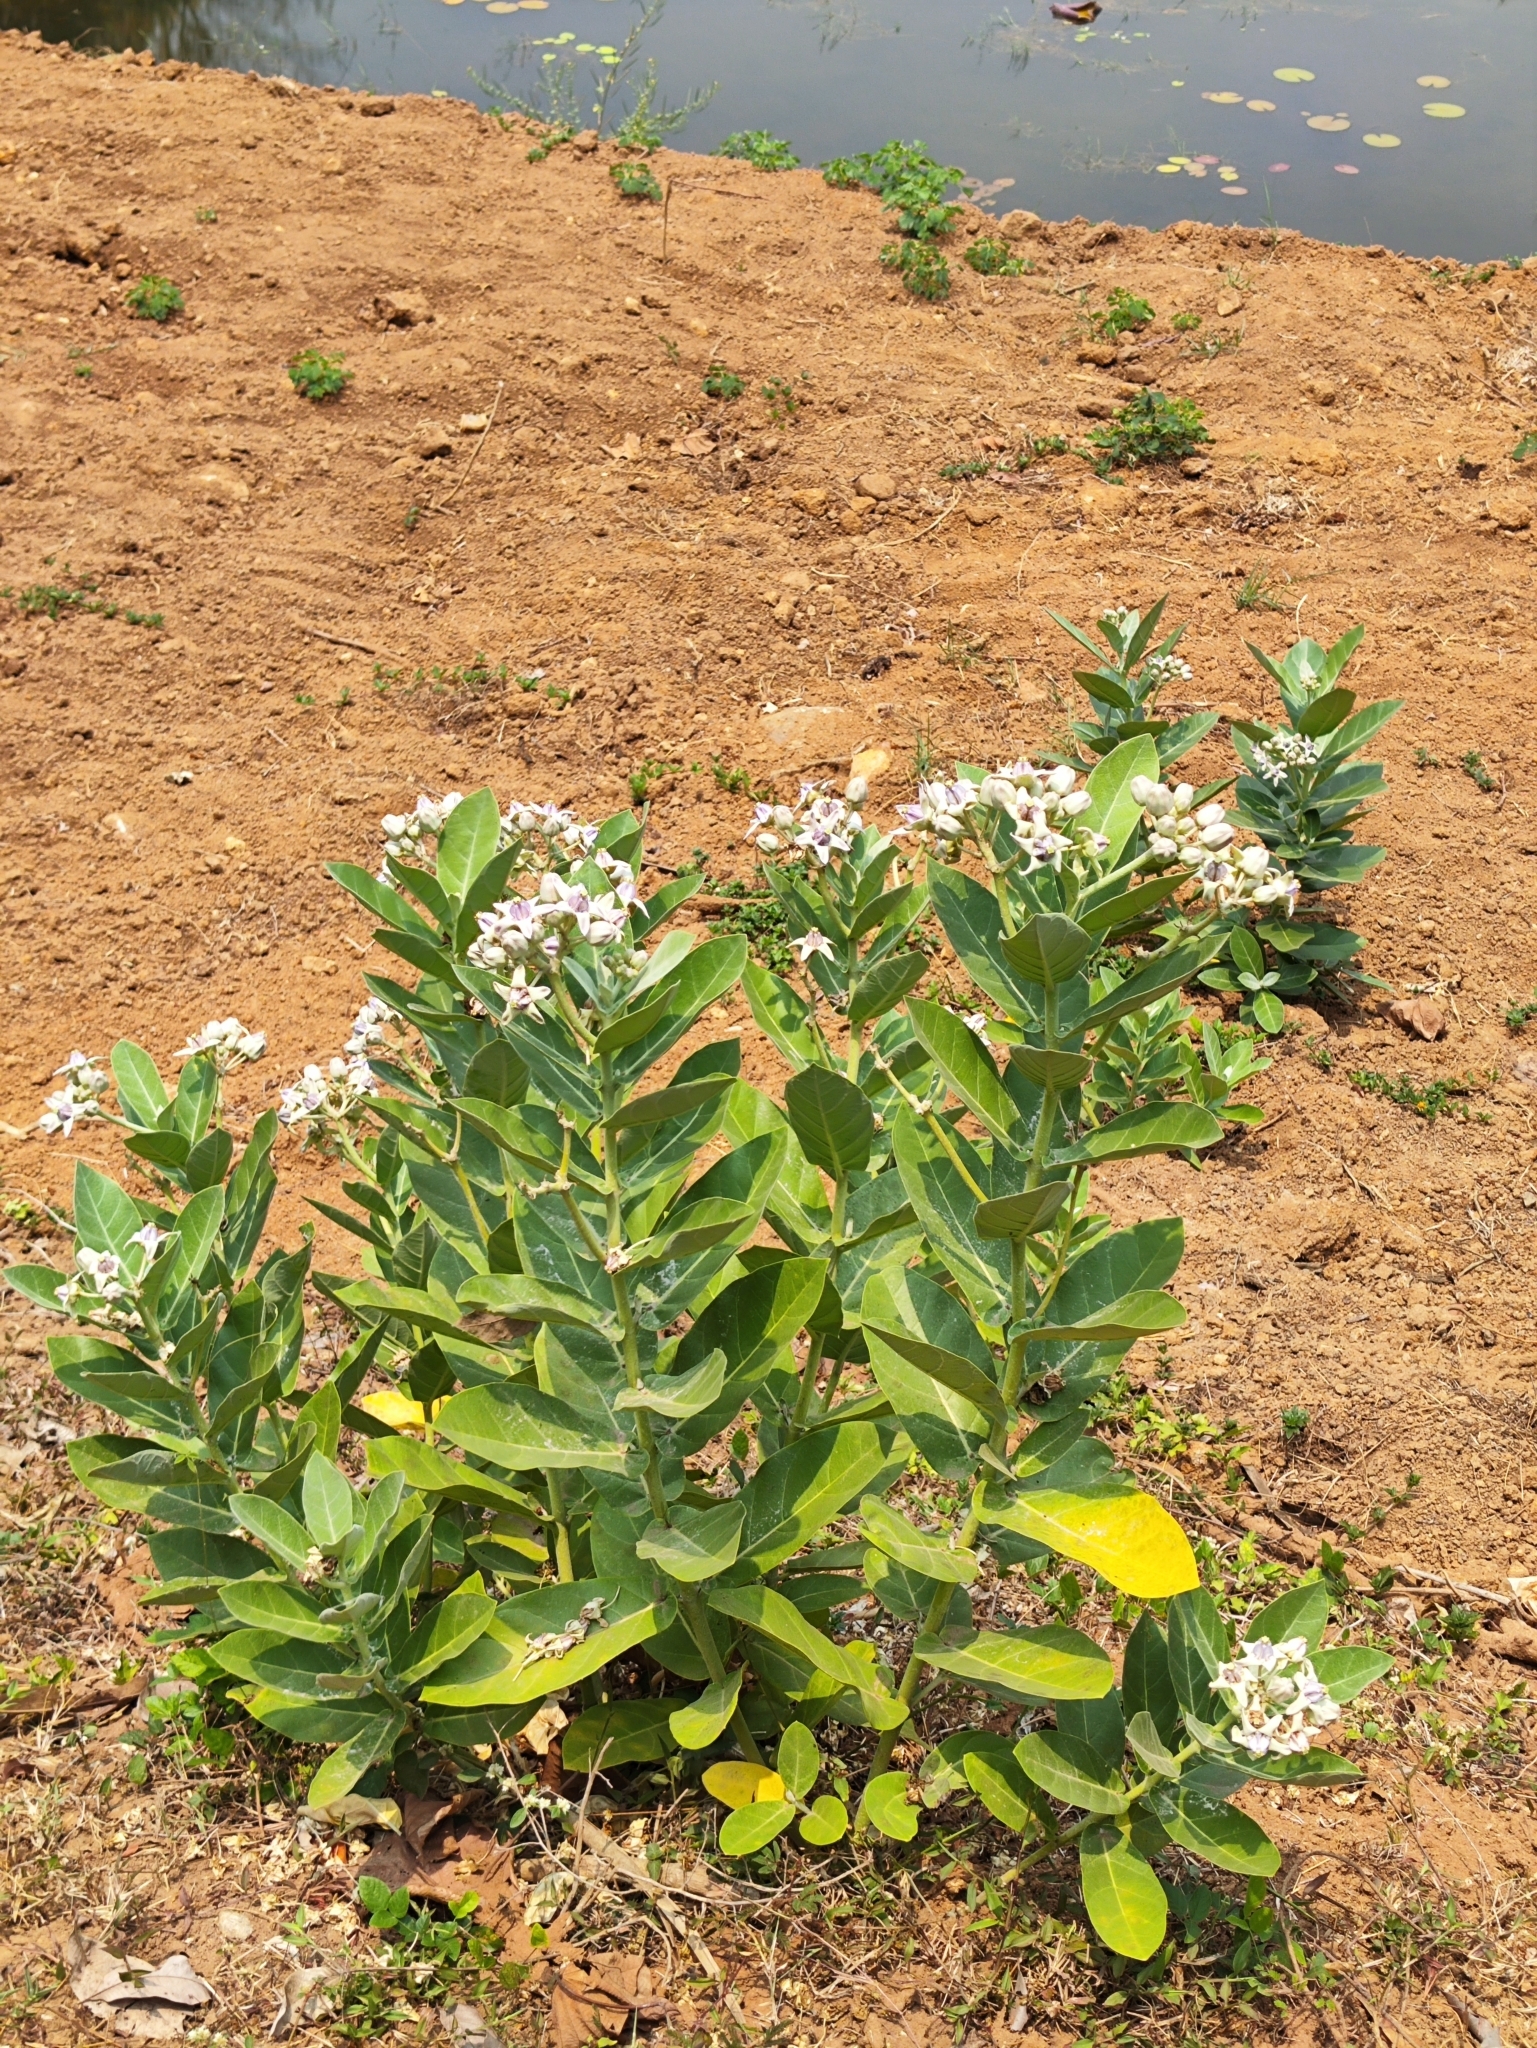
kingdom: Plantae
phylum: Tracheophyta
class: Magnoliopsida
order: Gentianales
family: Apocynaceae
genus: Calotropis
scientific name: Calotropis gigantea
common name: Crown flower
